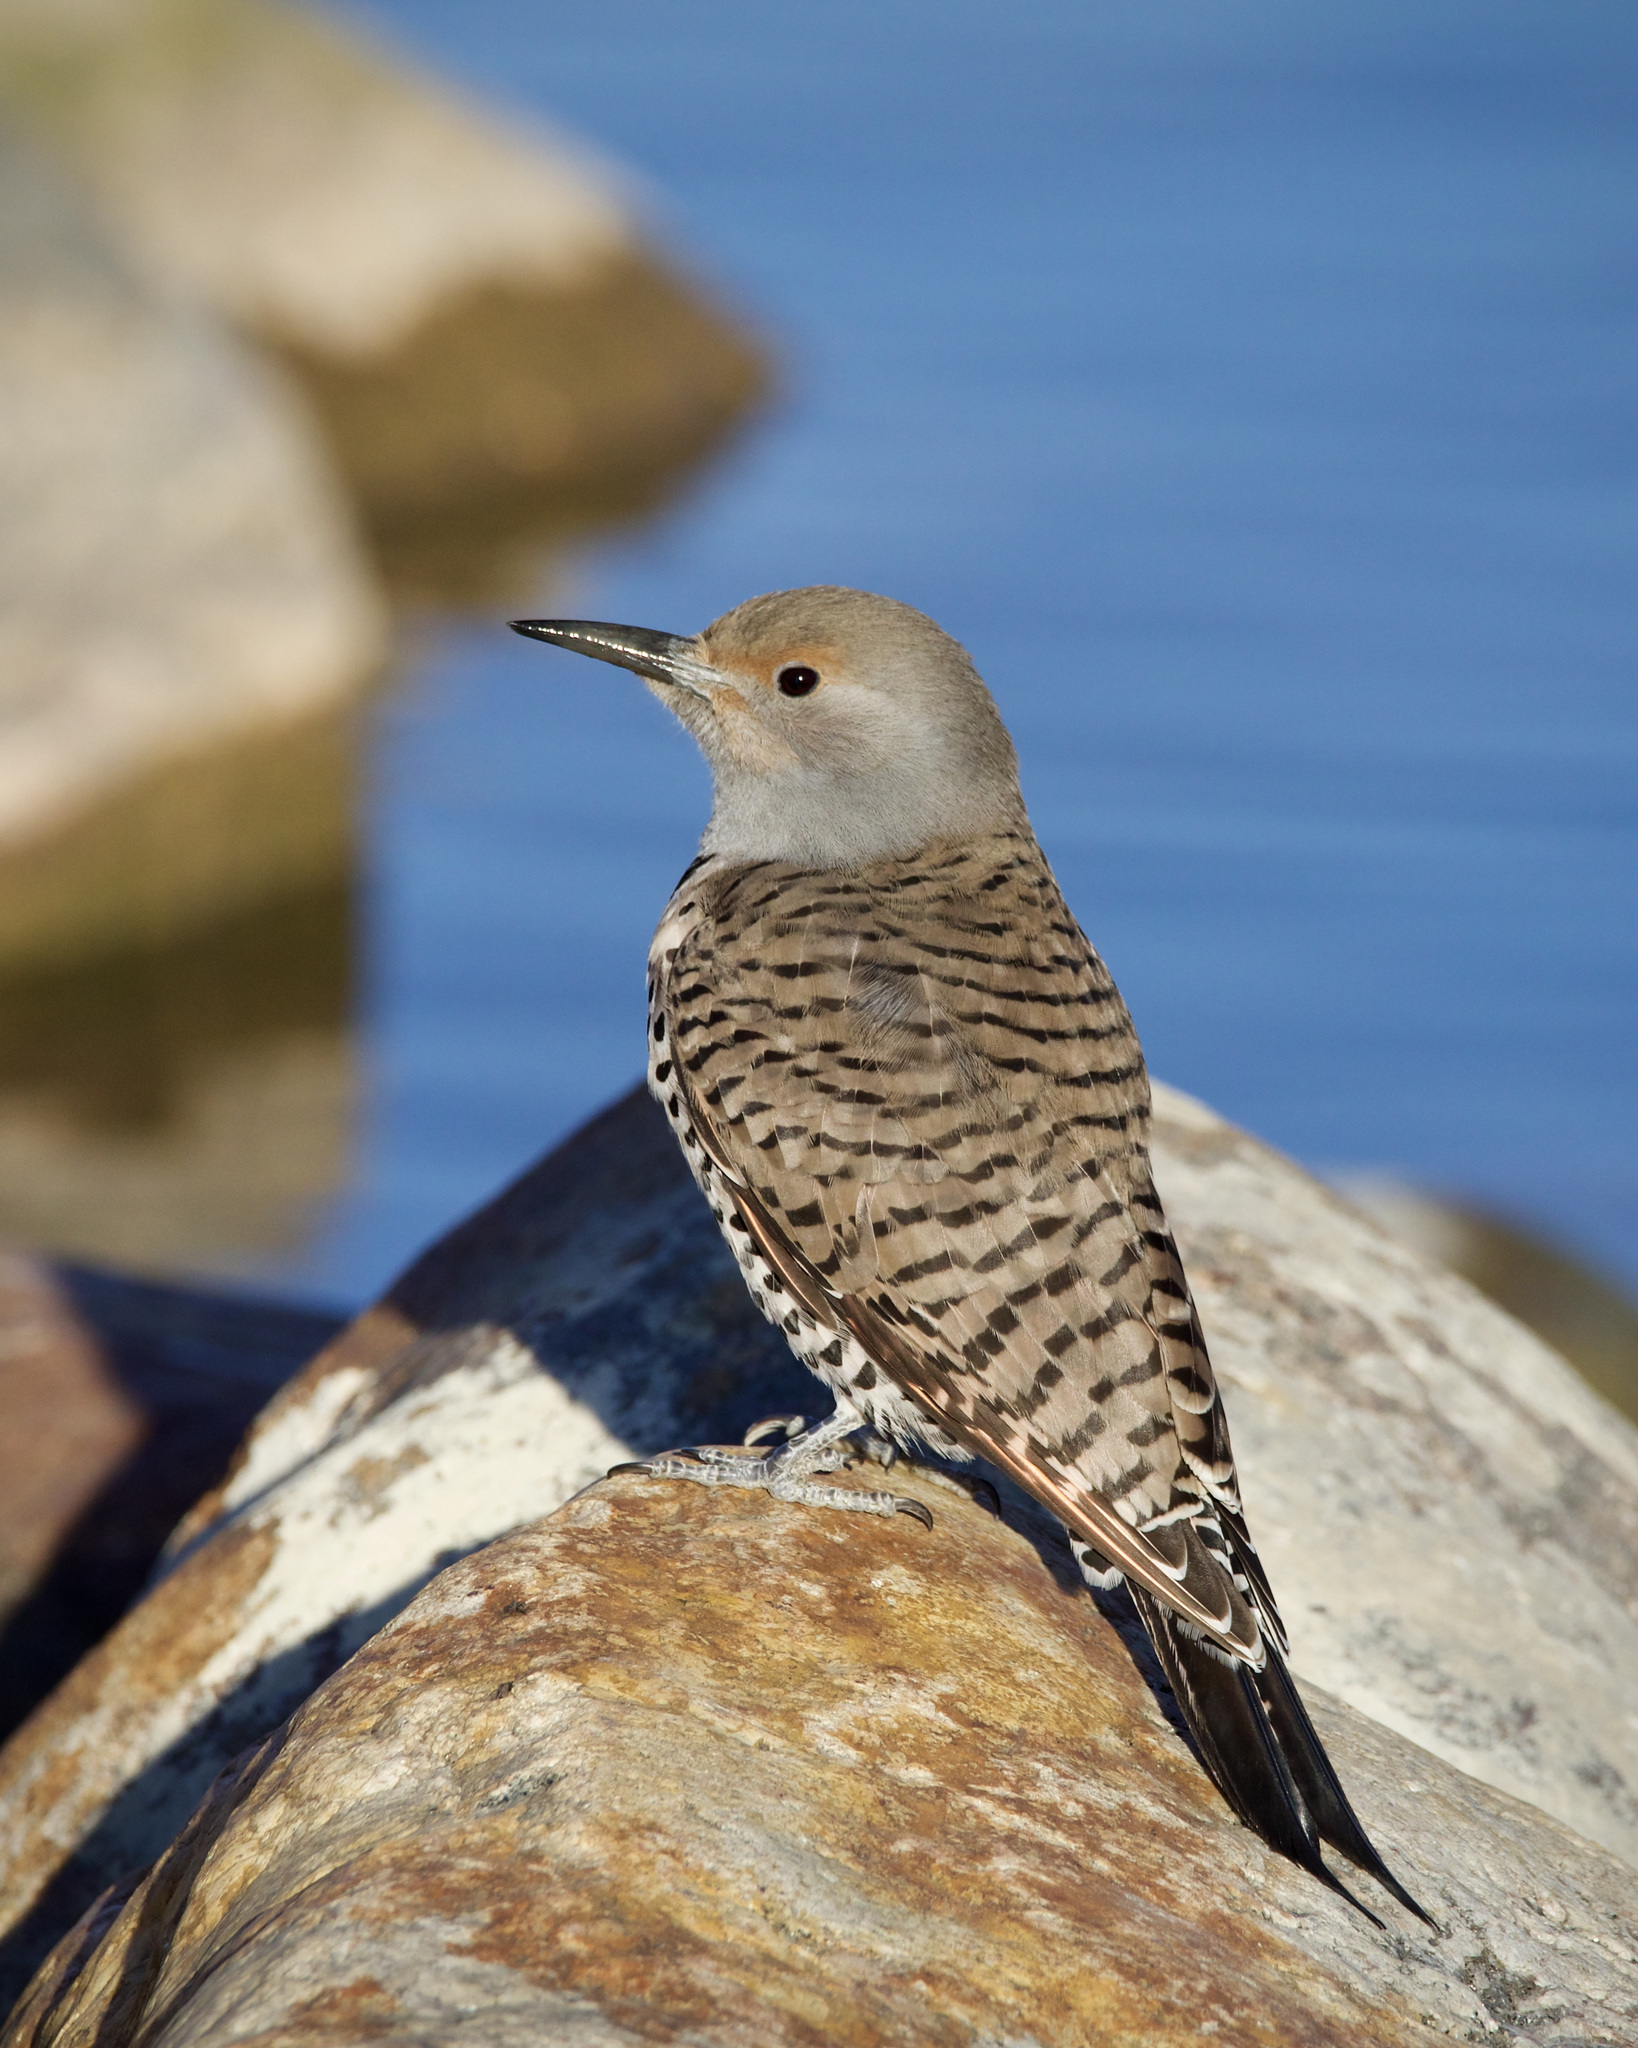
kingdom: Animalia
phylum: Chordata
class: Aves
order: Piciformes
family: Picidae
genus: Colaptes
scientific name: Colaptes auratus
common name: Northern flicker
